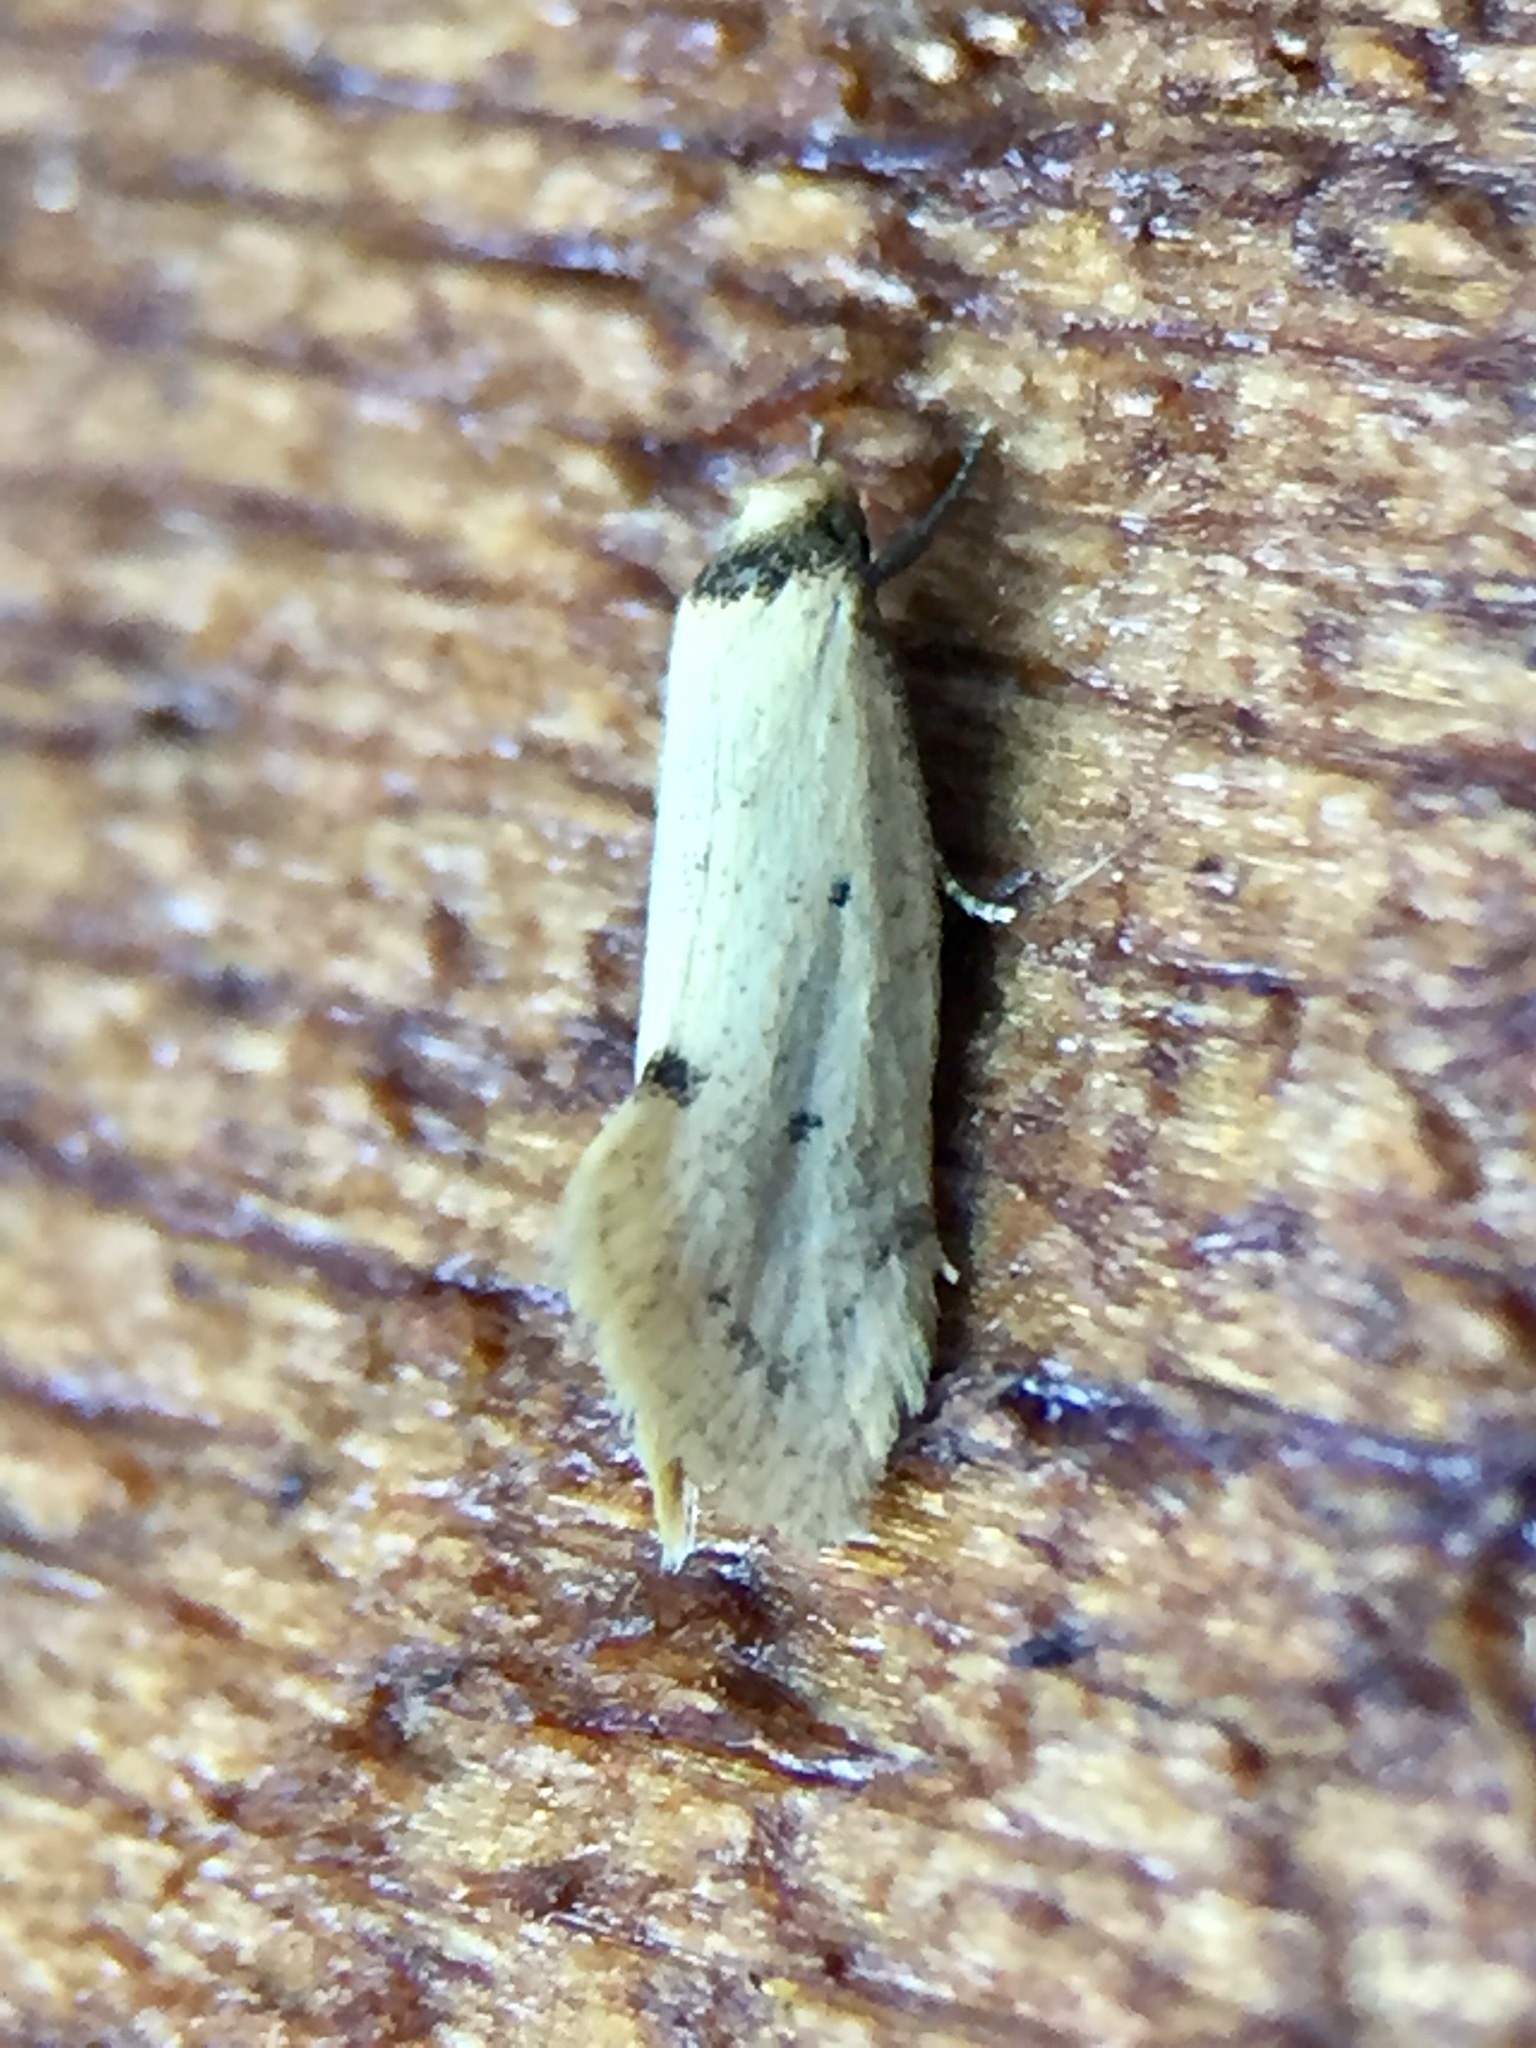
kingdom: Animalia
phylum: Arthropoda
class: Insecta
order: Lepidoptera
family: Oecophoridae
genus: Atalopsis
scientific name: Atalopsis
